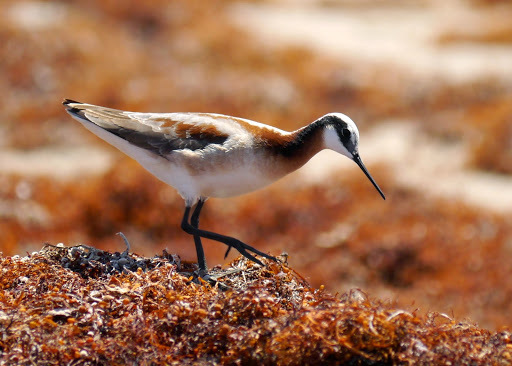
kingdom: Animalia
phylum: Chordata
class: Aves
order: Charadriiformes
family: Scolopacidae
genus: Phalaropus
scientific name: Phalaropus tricolor
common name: Wilson's phalarope
